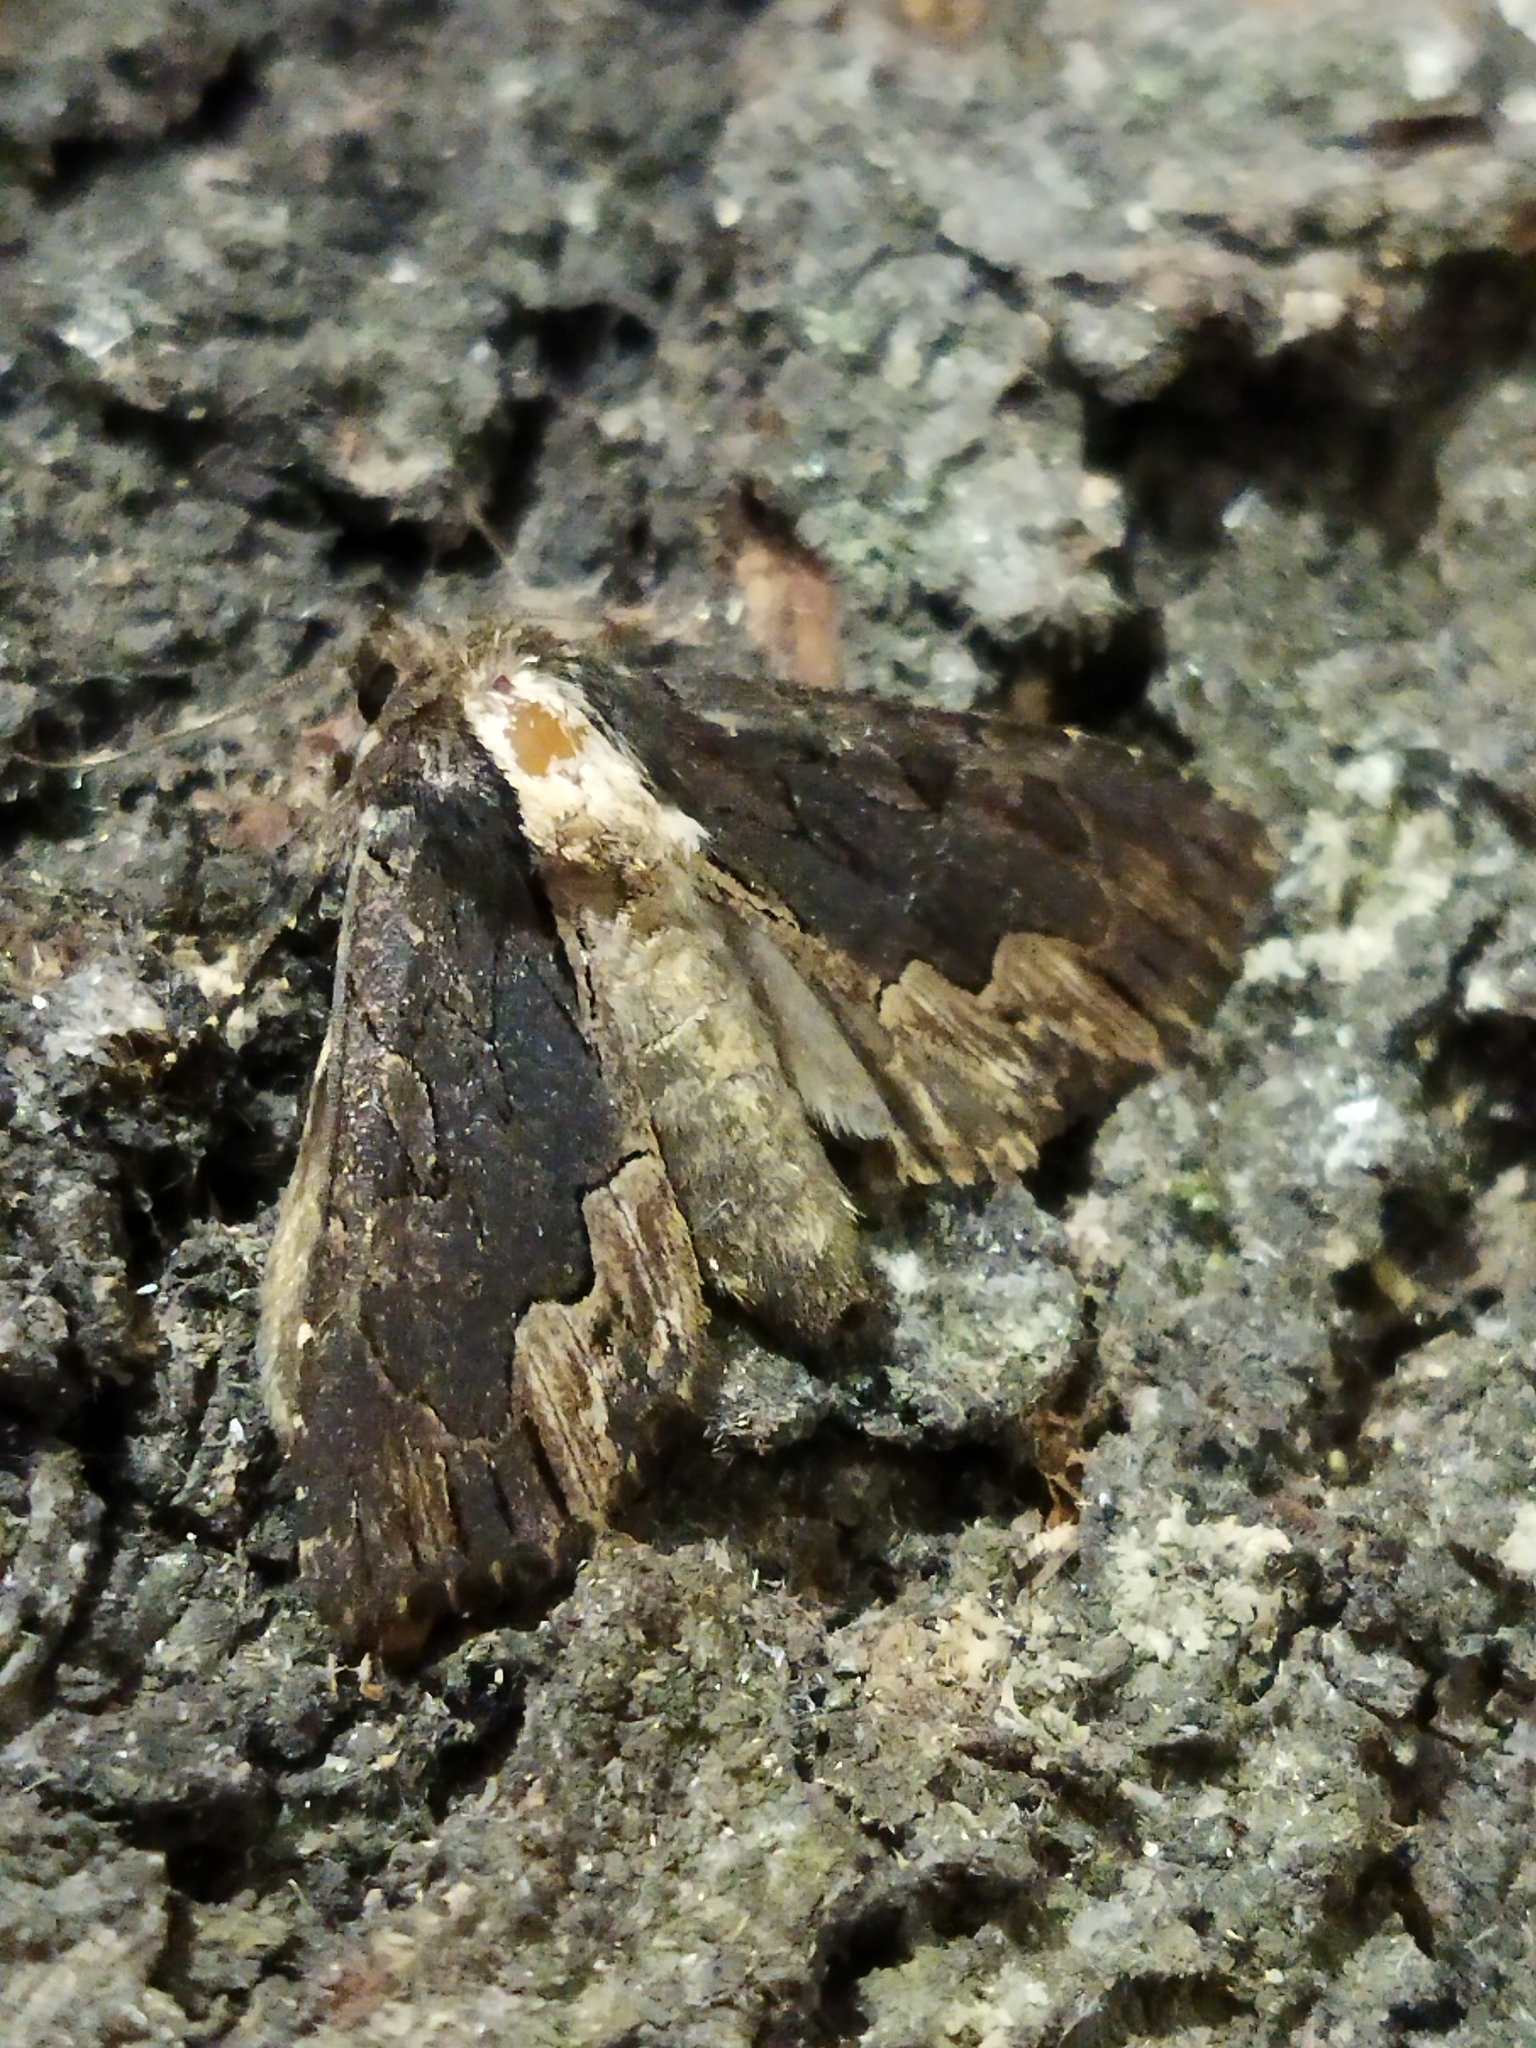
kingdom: Animalia
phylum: Arthropoda
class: Insecta
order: Lepidoptera
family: Noctuidae
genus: Dypterygia
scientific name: Dypterygia scabriuscula
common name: Bird's wing
